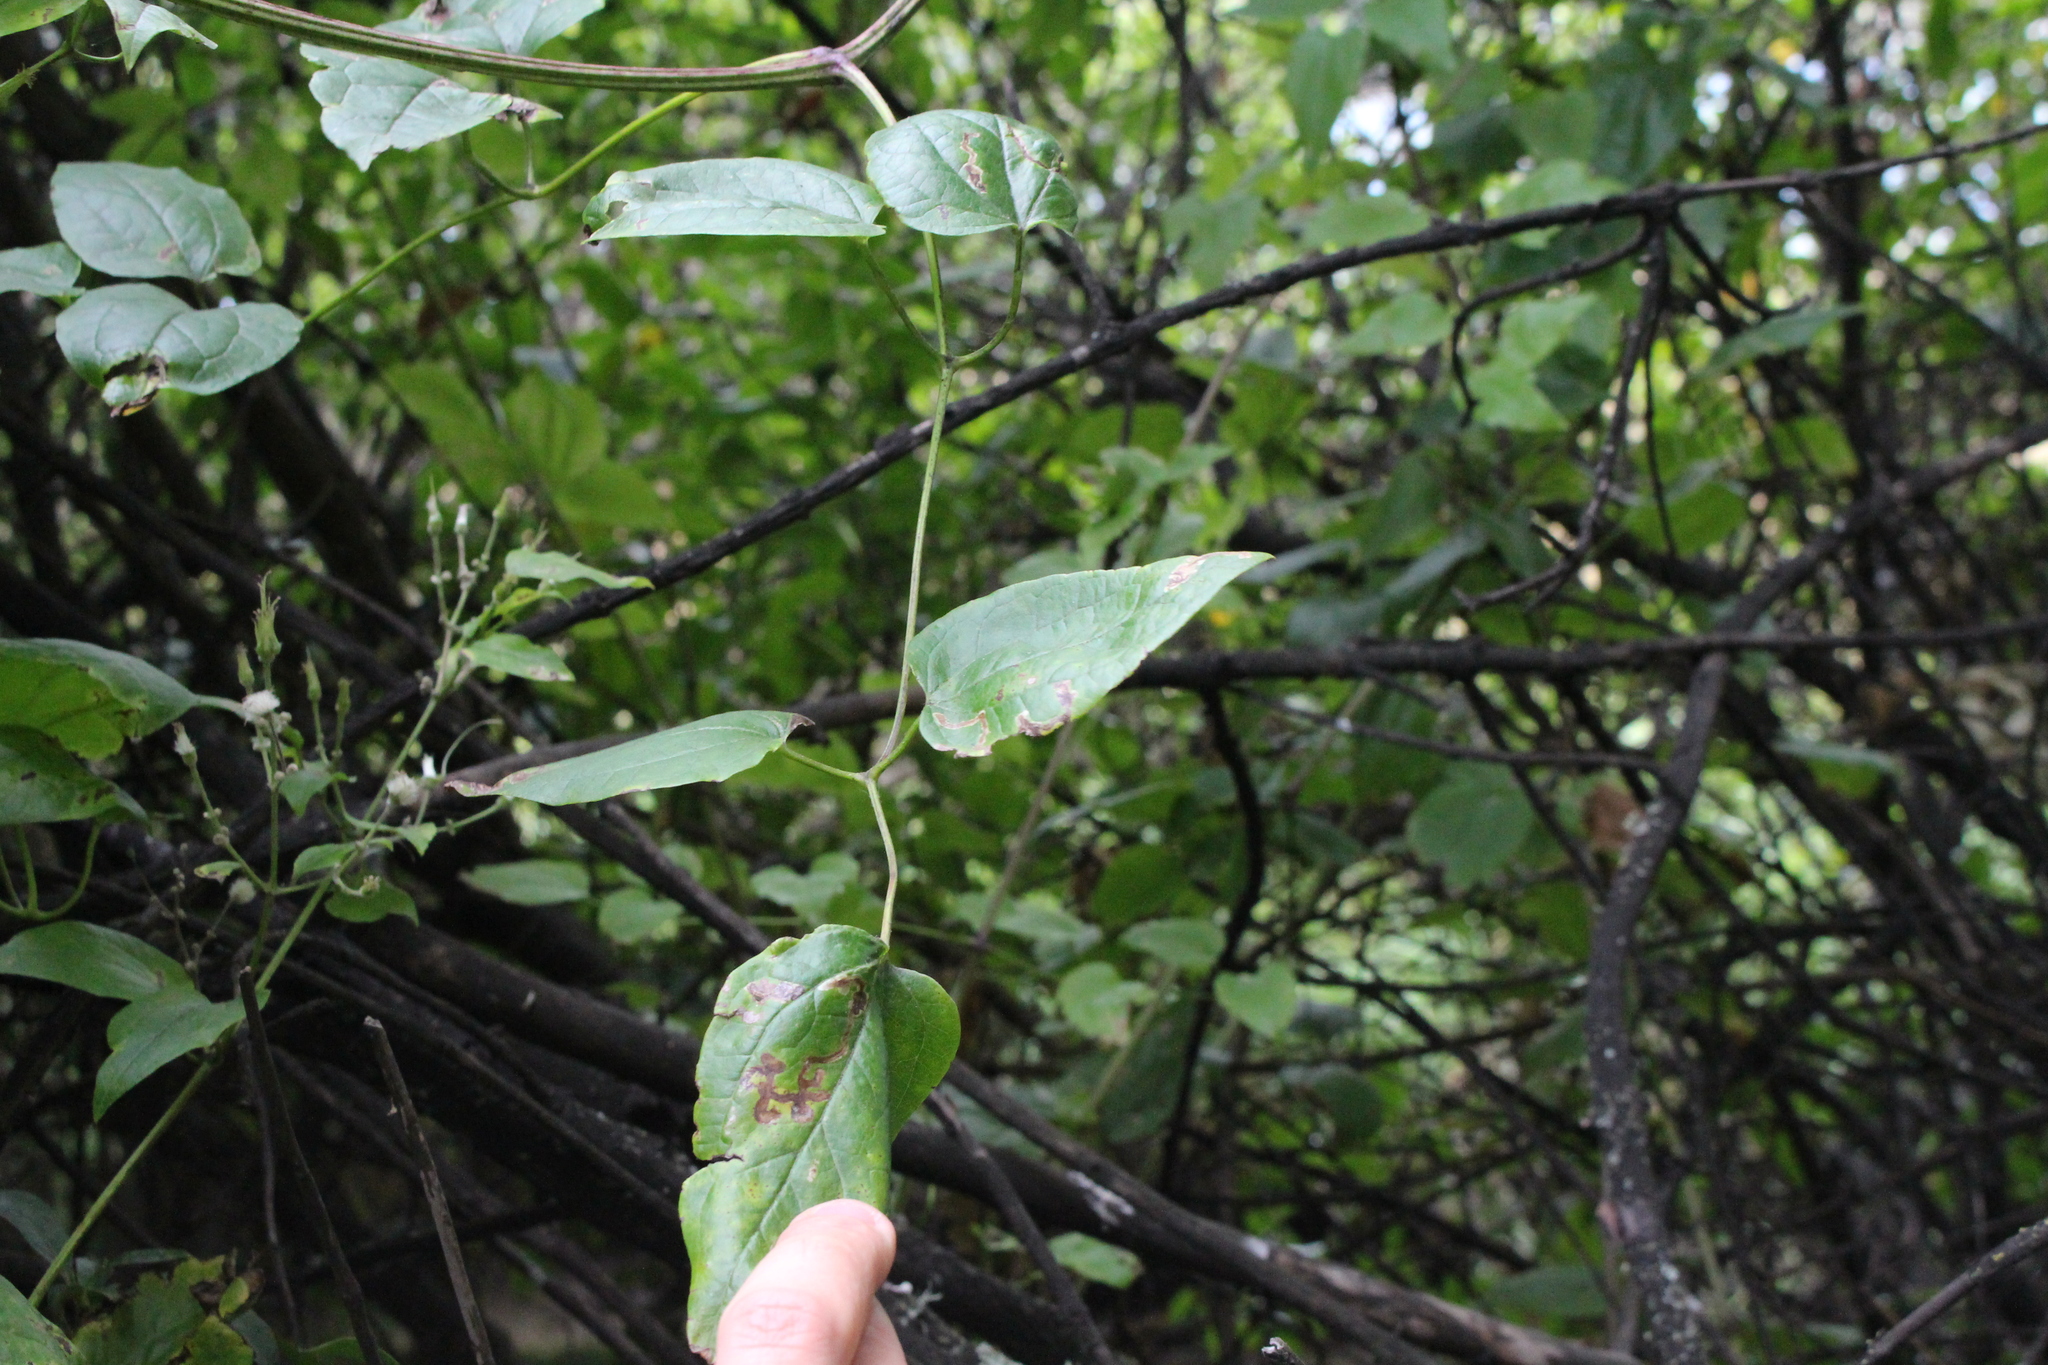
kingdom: Plantae
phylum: Tracheophyta
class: Magnoliopsida
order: Ranunculales
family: Ranunculaceae
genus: Clematis
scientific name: Clematis vitalba
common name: Evergreen clematis
